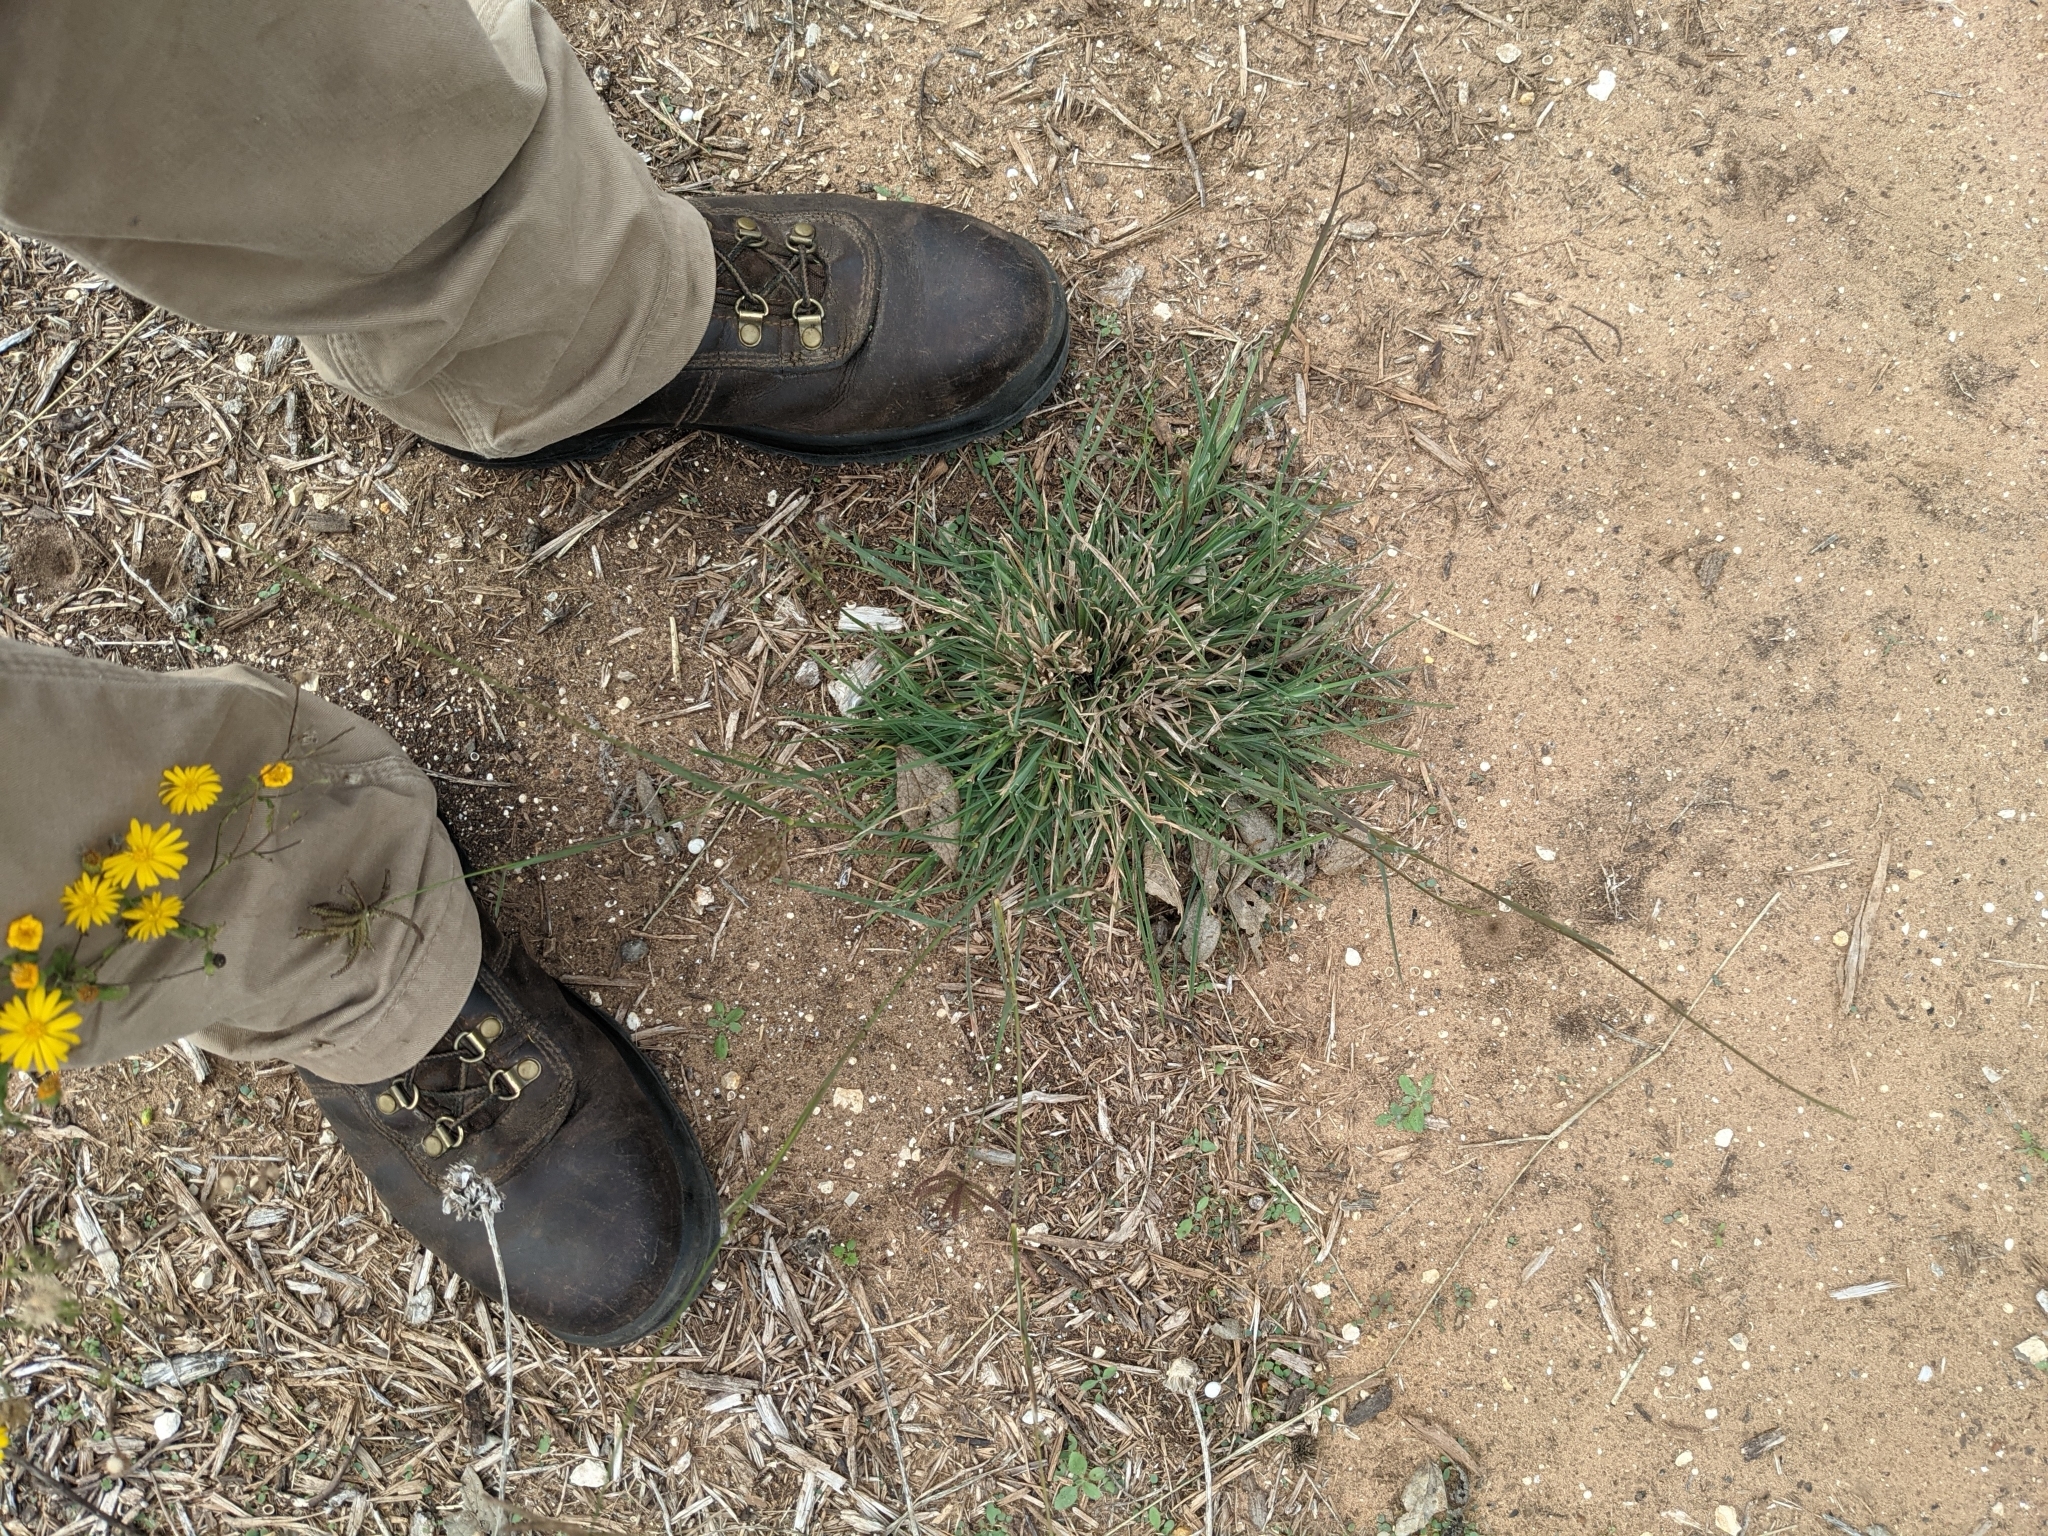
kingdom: Plantae
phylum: Tracheophyta
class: Liliopsida
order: Poales
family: Poaceae
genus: Chloris
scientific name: Chloris cucullata
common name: Hooded windmill grass
